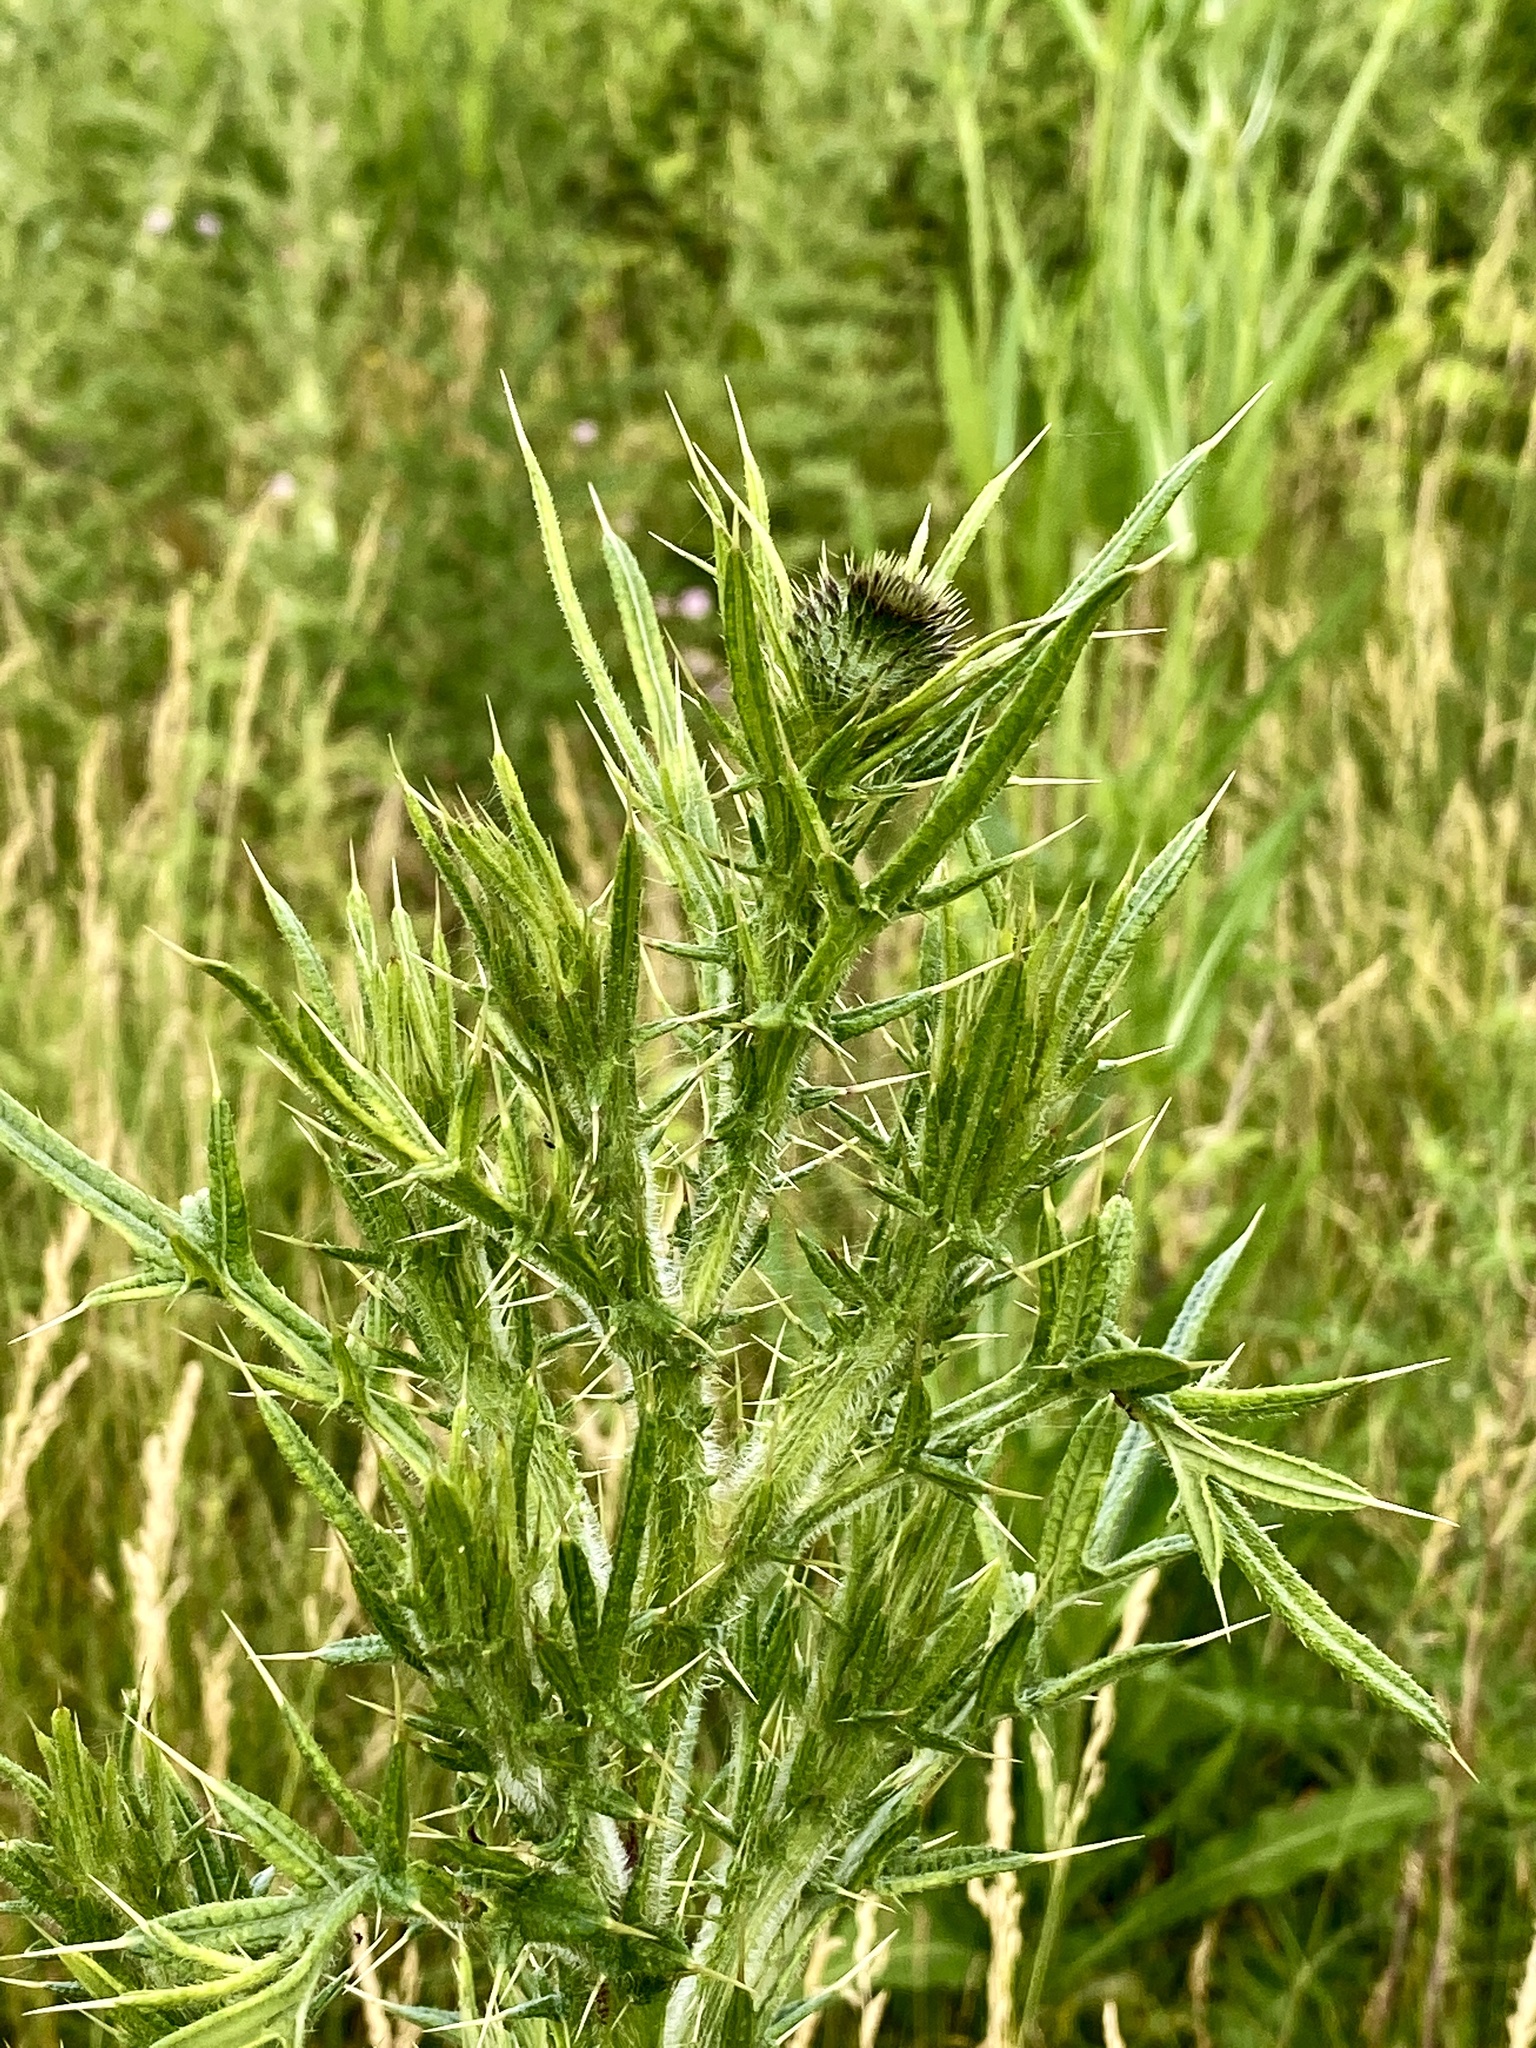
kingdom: Plantae
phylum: Tracheophyta
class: Magnoliopsida
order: Asterales
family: Asteraceae
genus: Cirsium
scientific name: Cirsium vulgare
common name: Bull thistle
